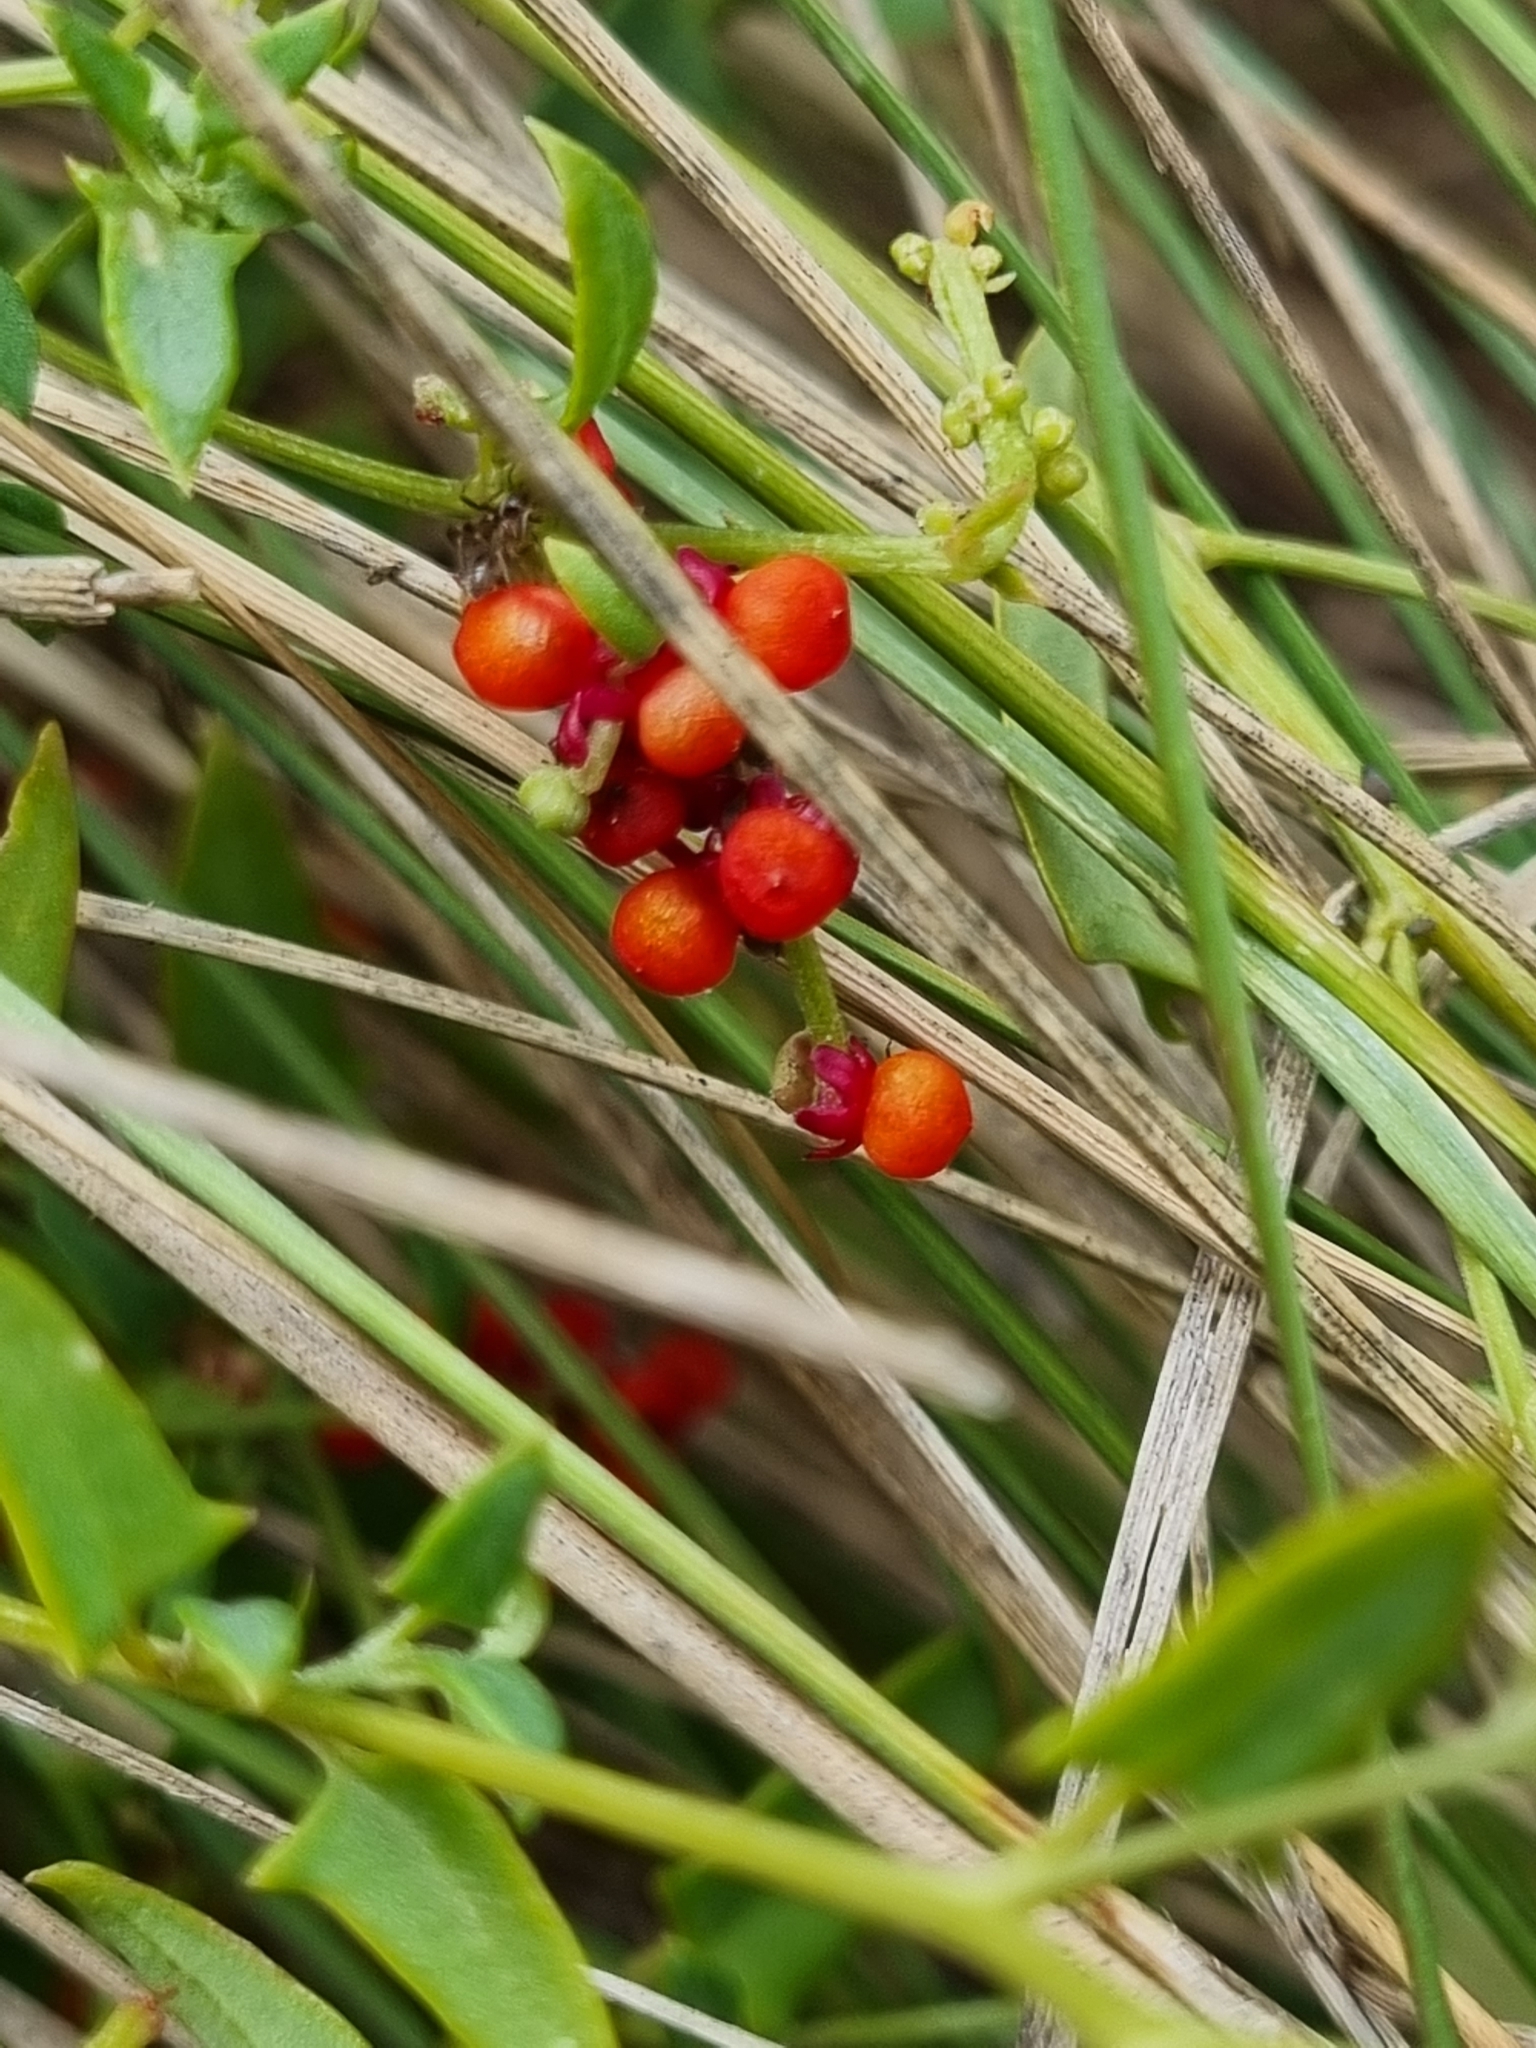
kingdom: Plantae
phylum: Tracheophyta
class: Magnoliopsida
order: Caryophyllales
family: Amaranthaceae
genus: Chenopodium
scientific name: Chenopodium nutans
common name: Climbing-saltbush
